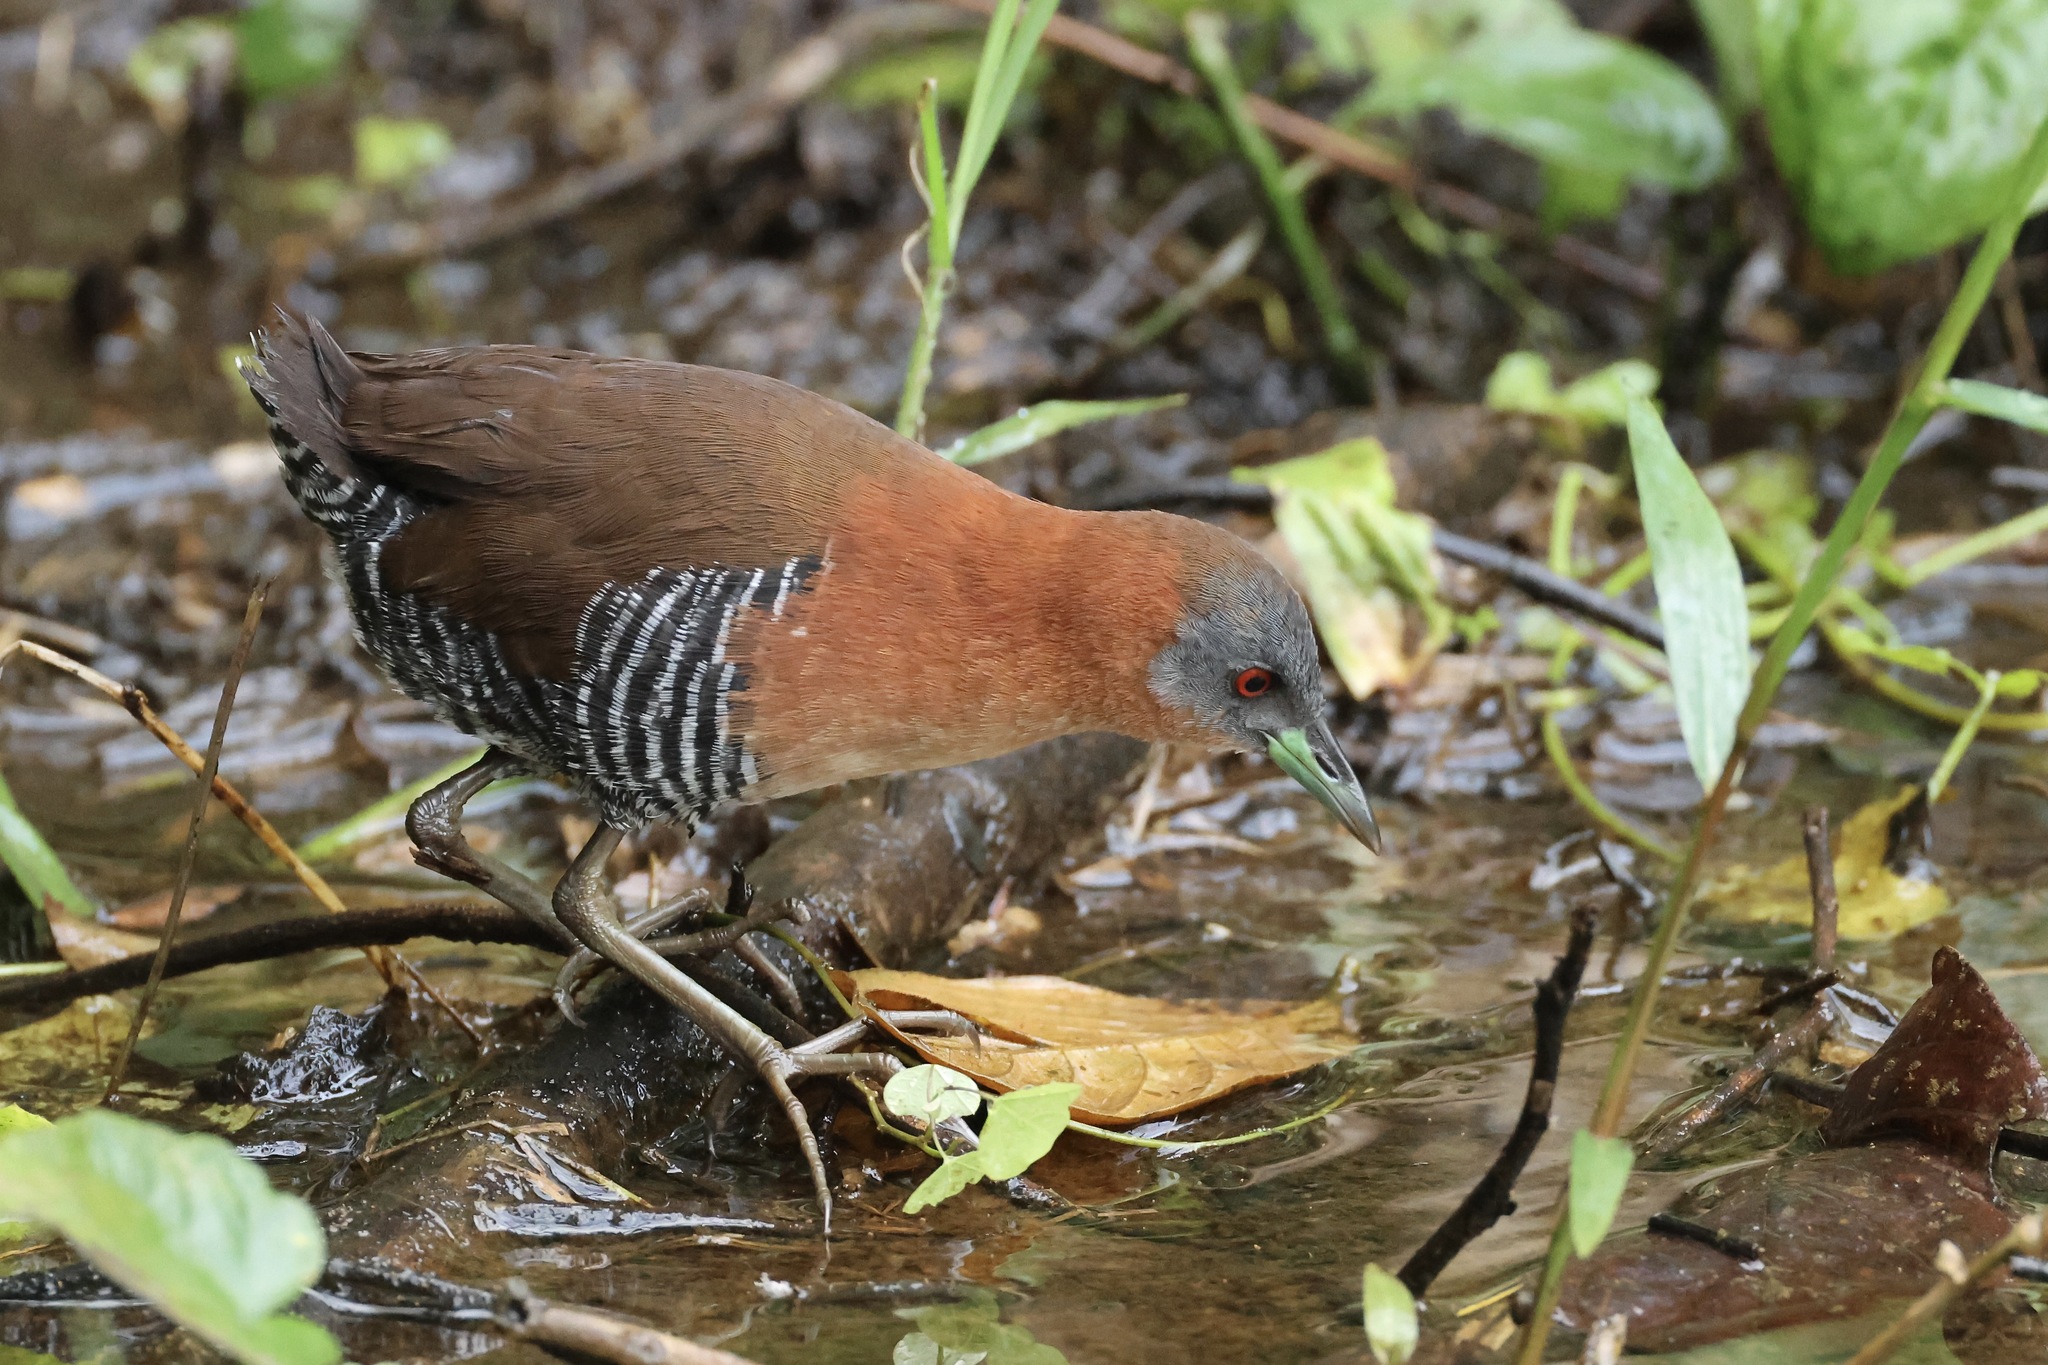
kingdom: Animalia
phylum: Chordata
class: Aves
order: Gruiformes
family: Rallidae
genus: Laterallus
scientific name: Laterallus albigularis
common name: White-throated crake
